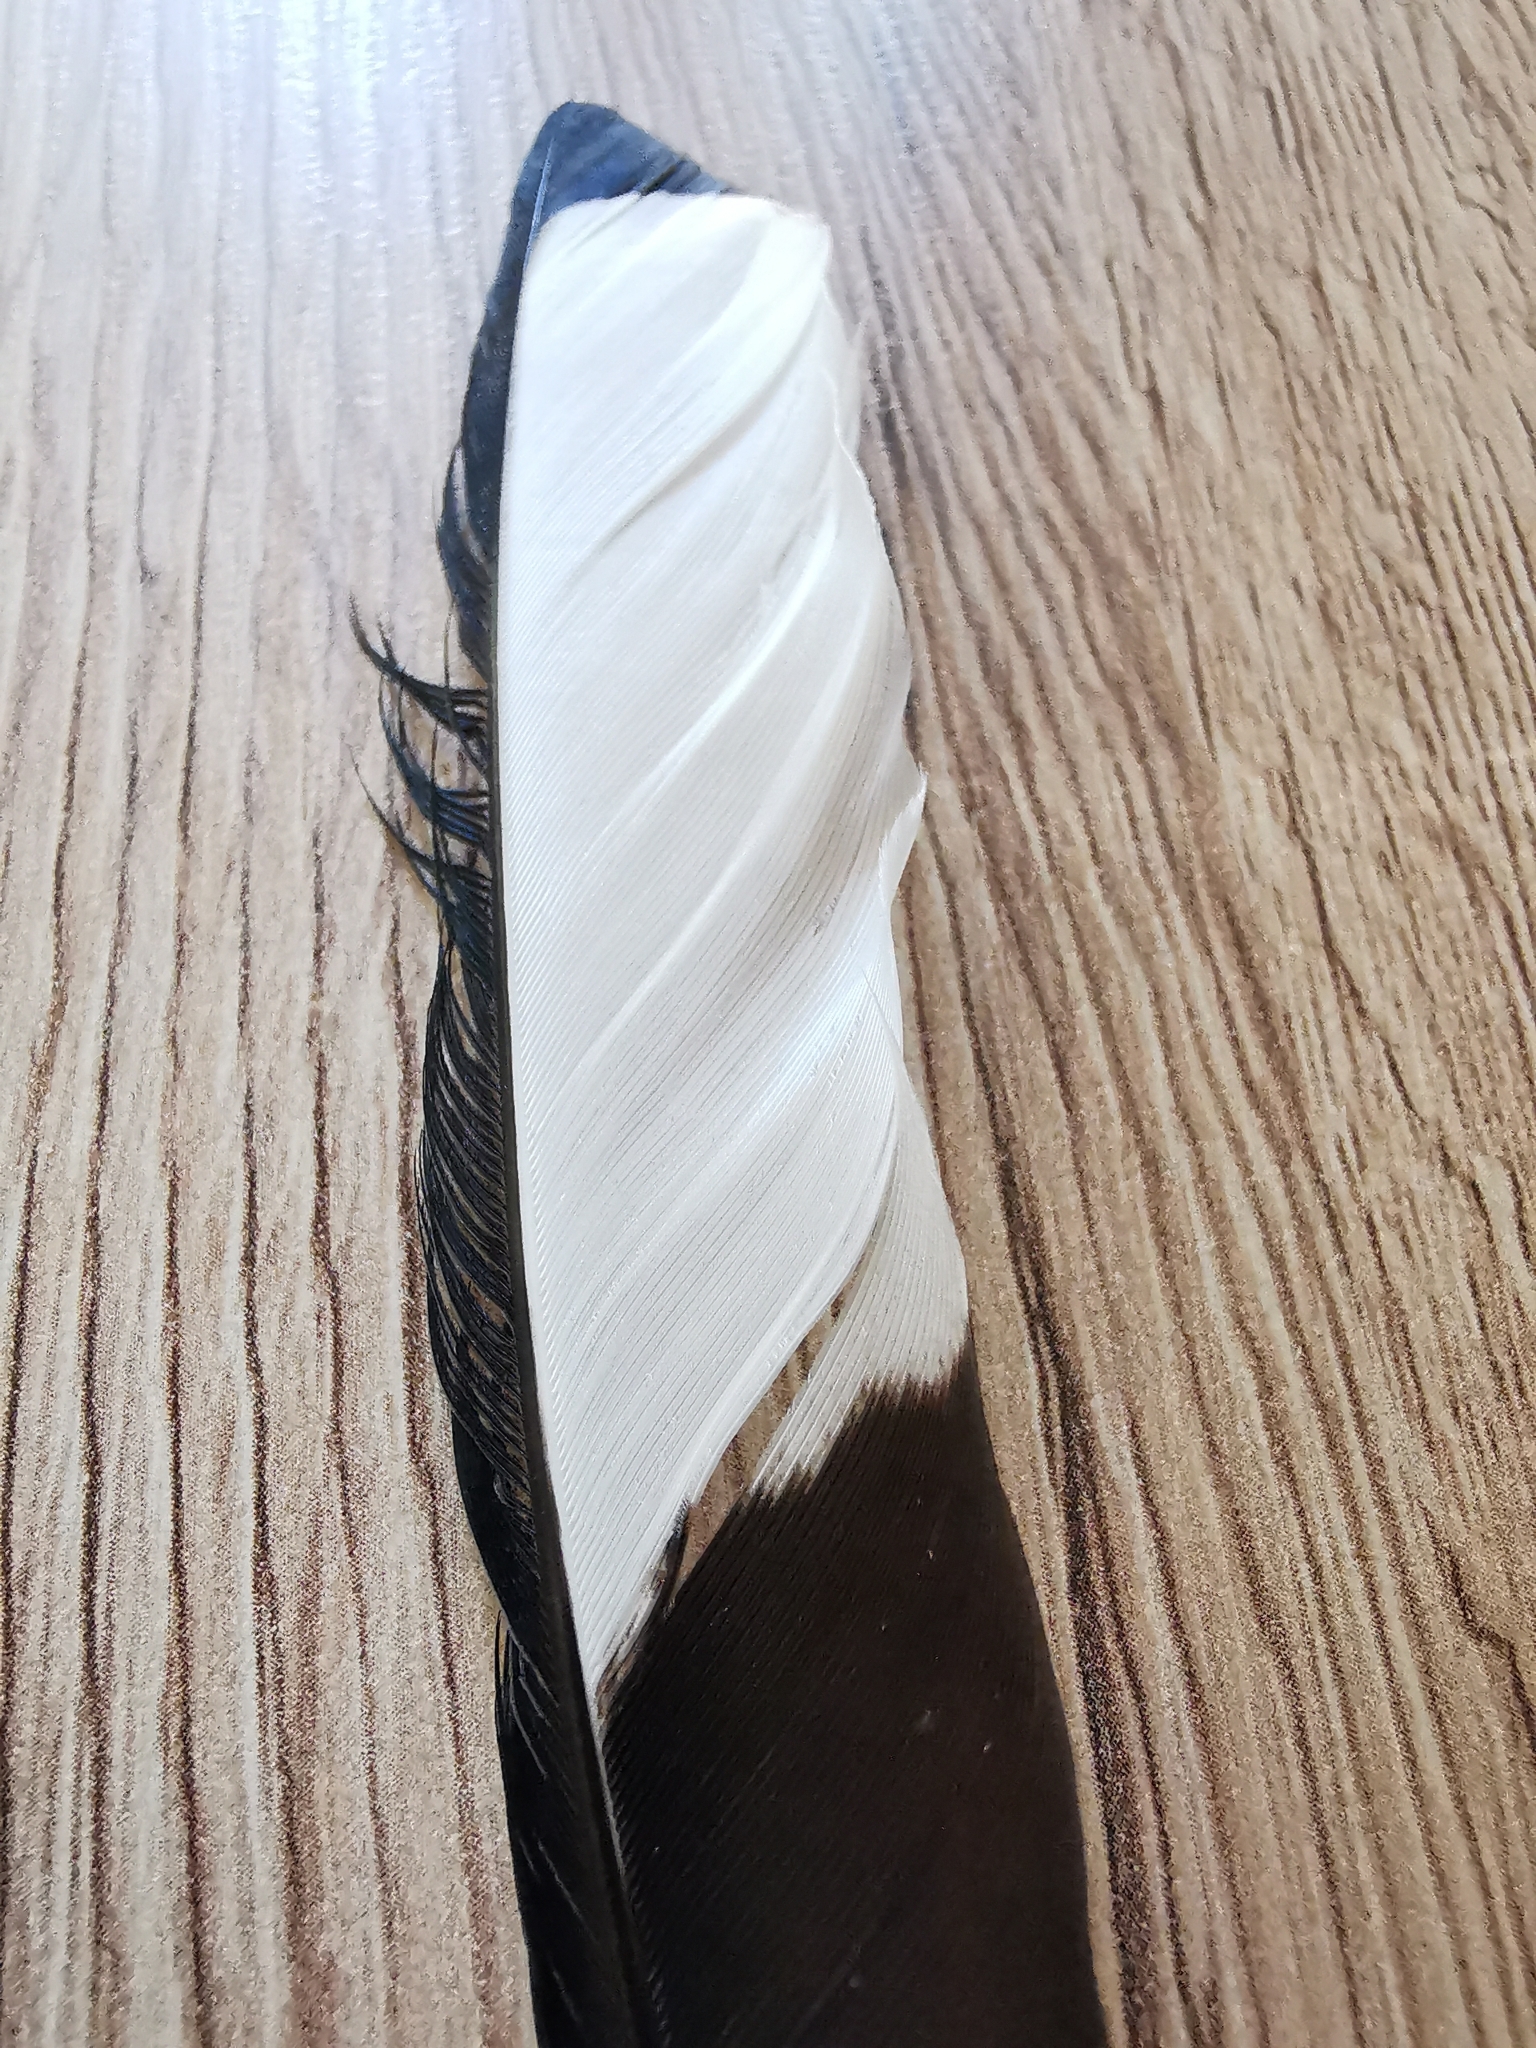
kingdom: Animalia
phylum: Chordata
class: Aves
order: Passeriformes
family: Corvidae
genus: Pica
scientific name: Pica pica
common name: Eurasian magpie
